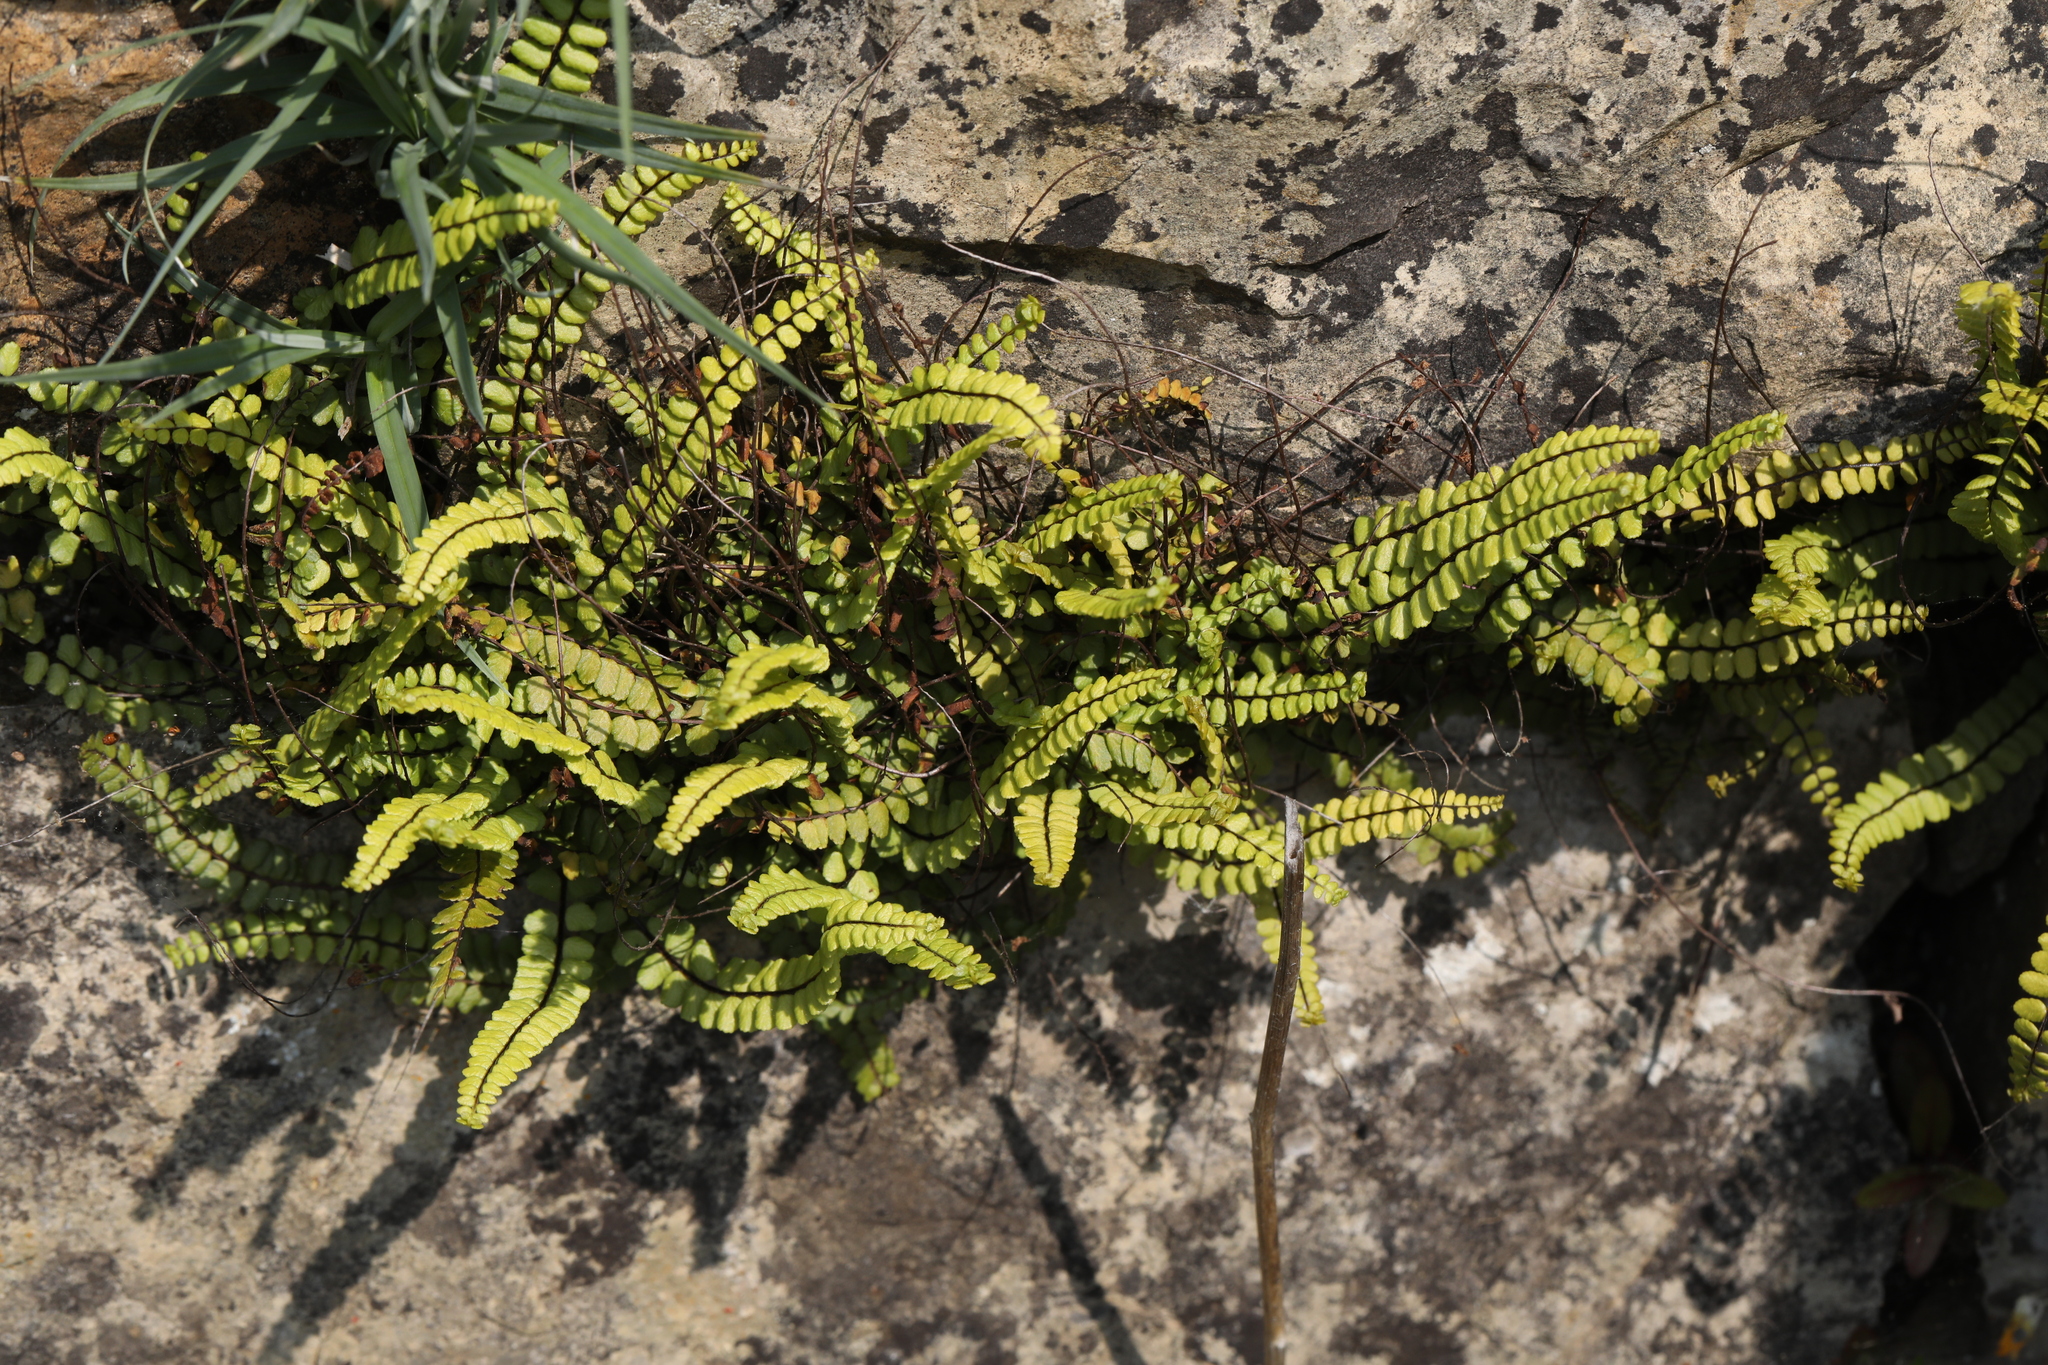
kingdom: Plantae
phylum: Tracheophyta
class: Polypodiopsida
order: Polypodiales
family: Aspleniaceae
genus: Asplenium
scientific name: Asplenium trichomanes
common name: Maidenhair spleenwort
